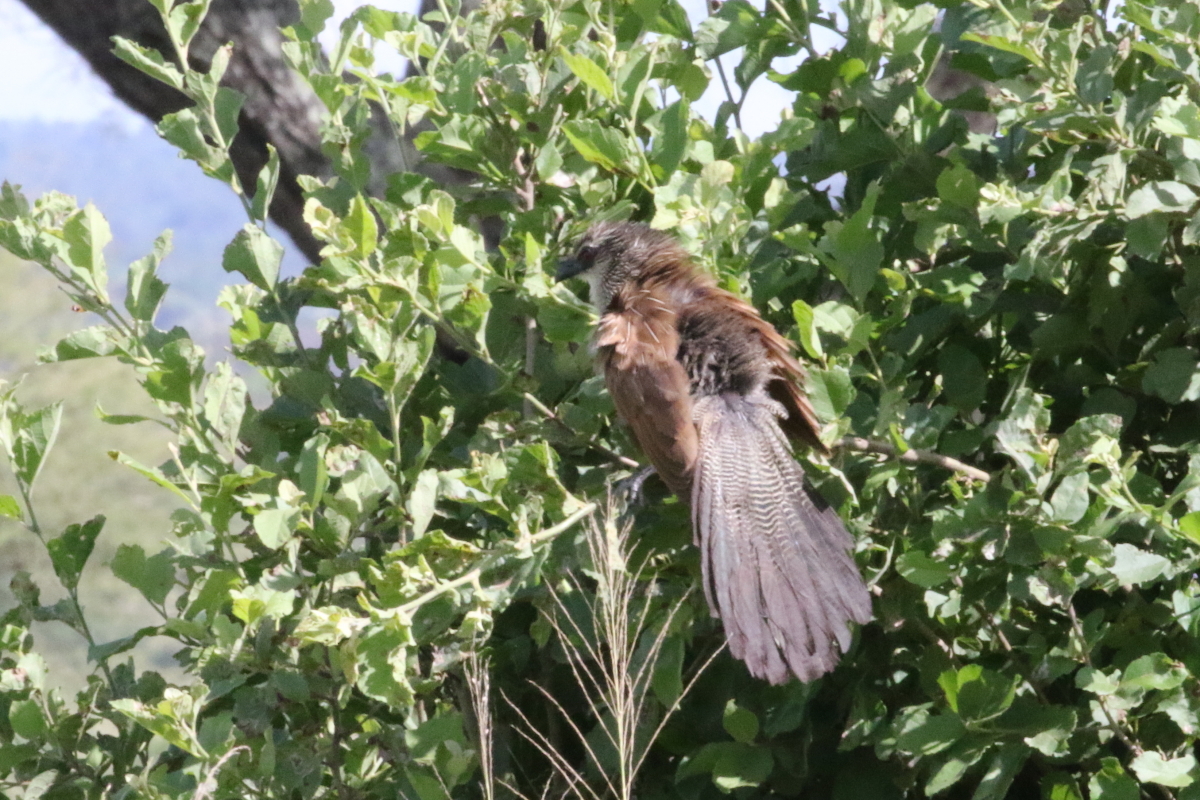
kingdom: Animalia
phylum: Chordata
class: Aves
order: Cuculiformes
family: Cuculidae
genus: Centropus
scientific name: Centropus superciliosus
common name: White-browed coucal
